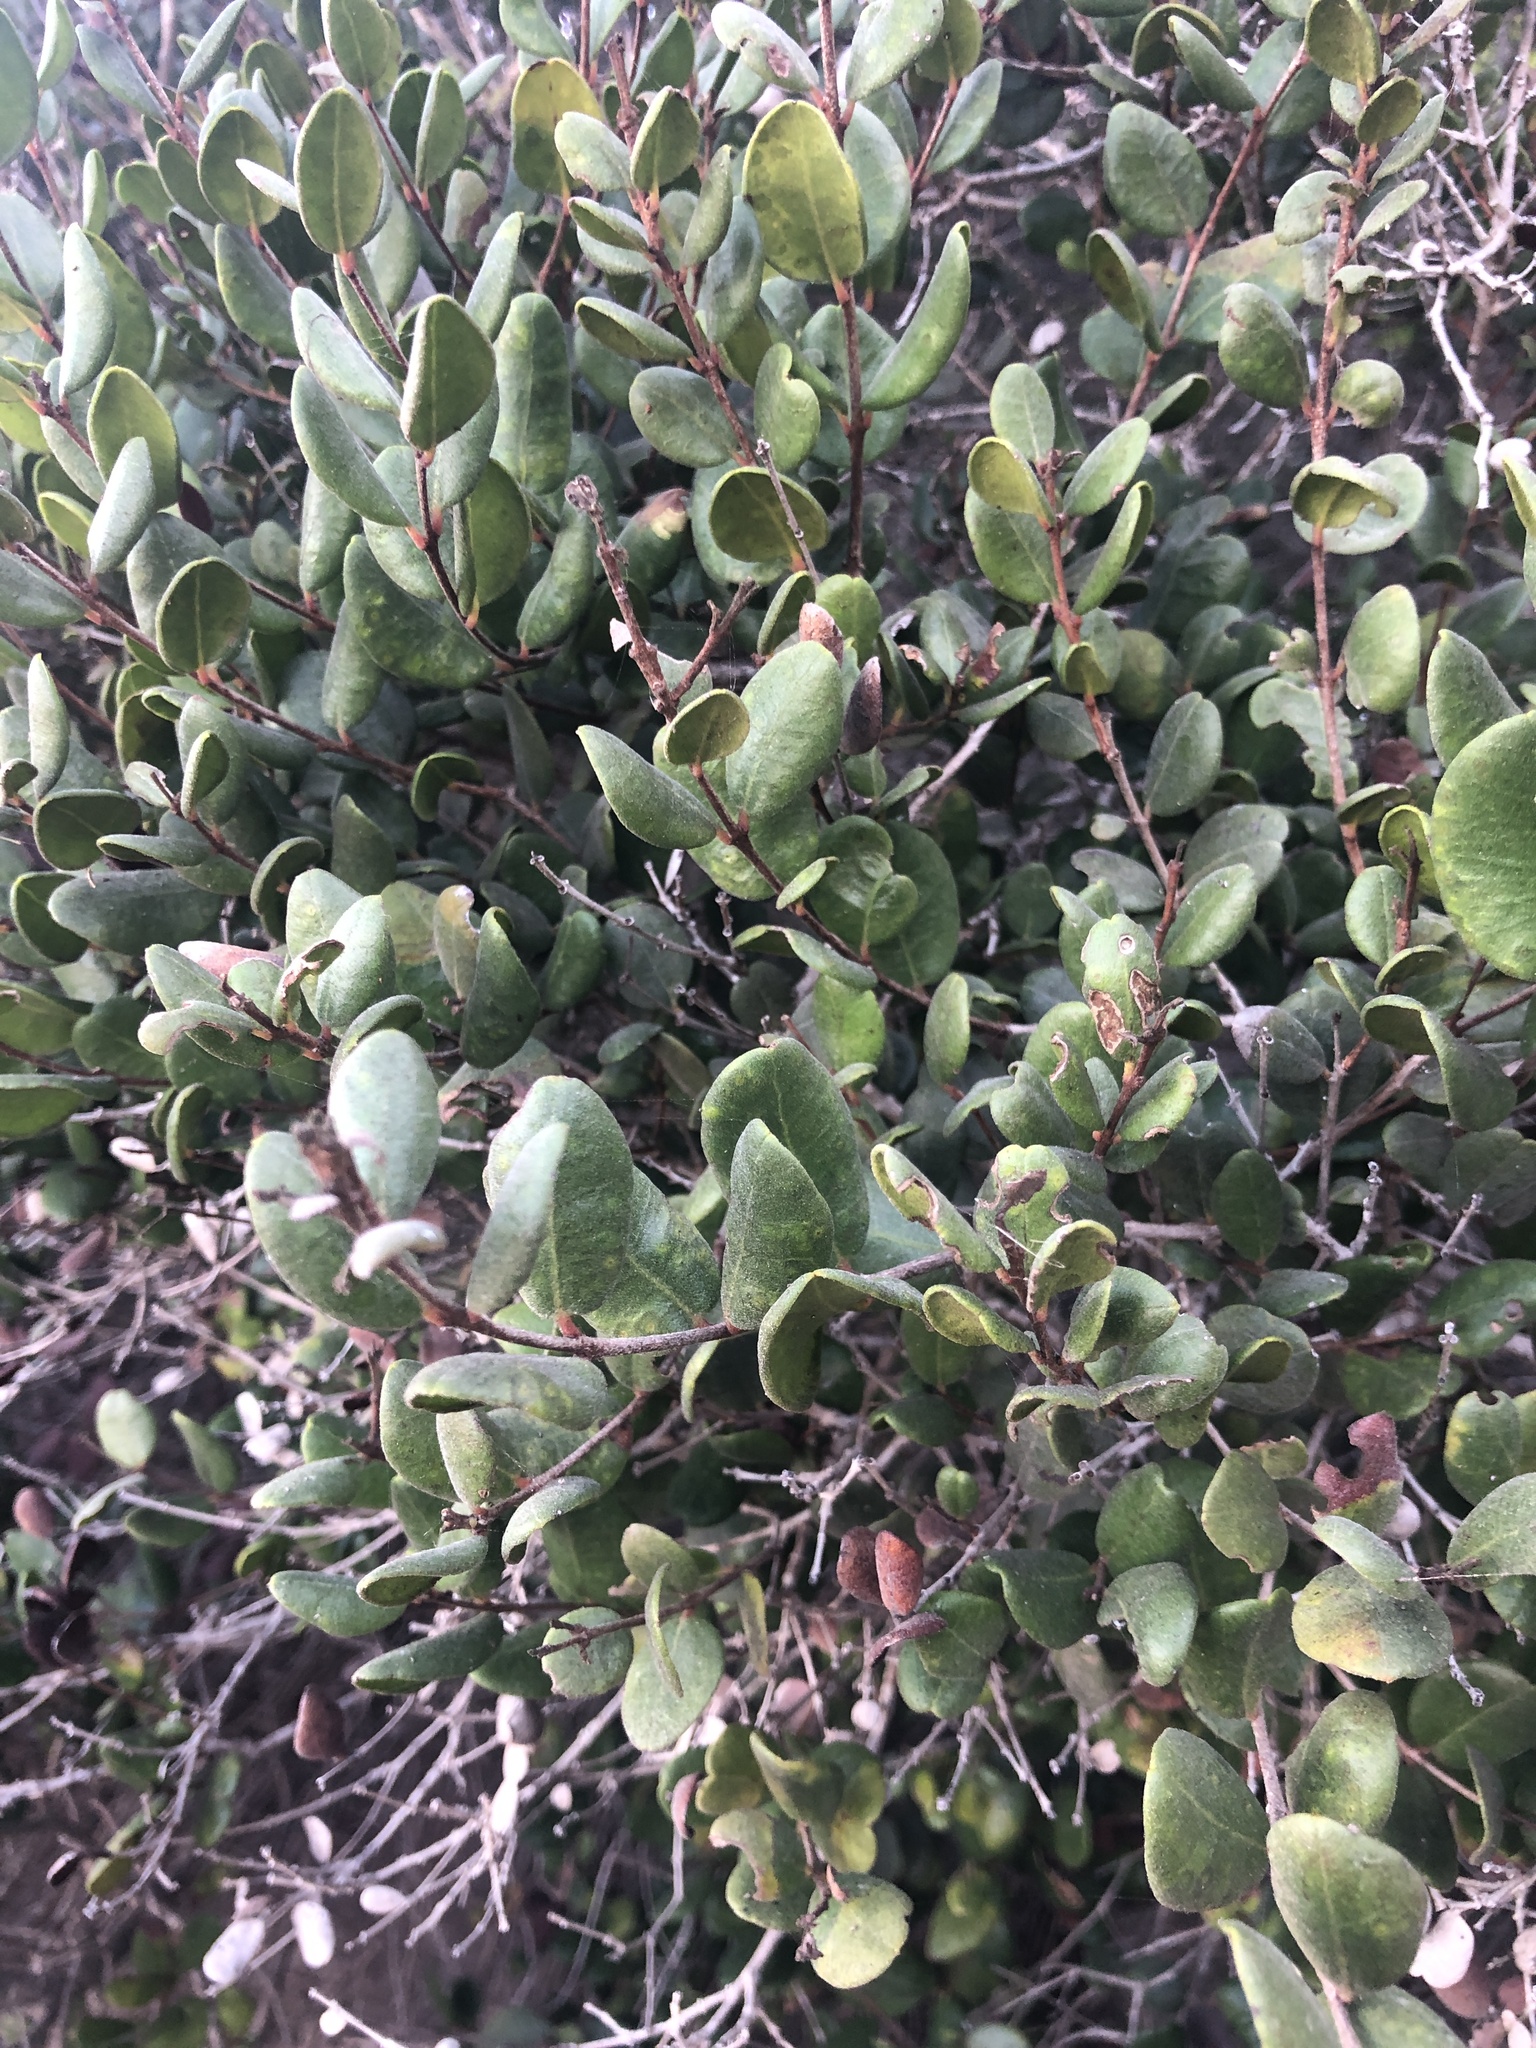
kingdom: Plantae
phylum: Tracheophyta
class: Magnoliopsida
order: Myrtales
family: Myrtaceae
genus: Myrcianthes
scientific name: Myrcianthes coquimbensis
